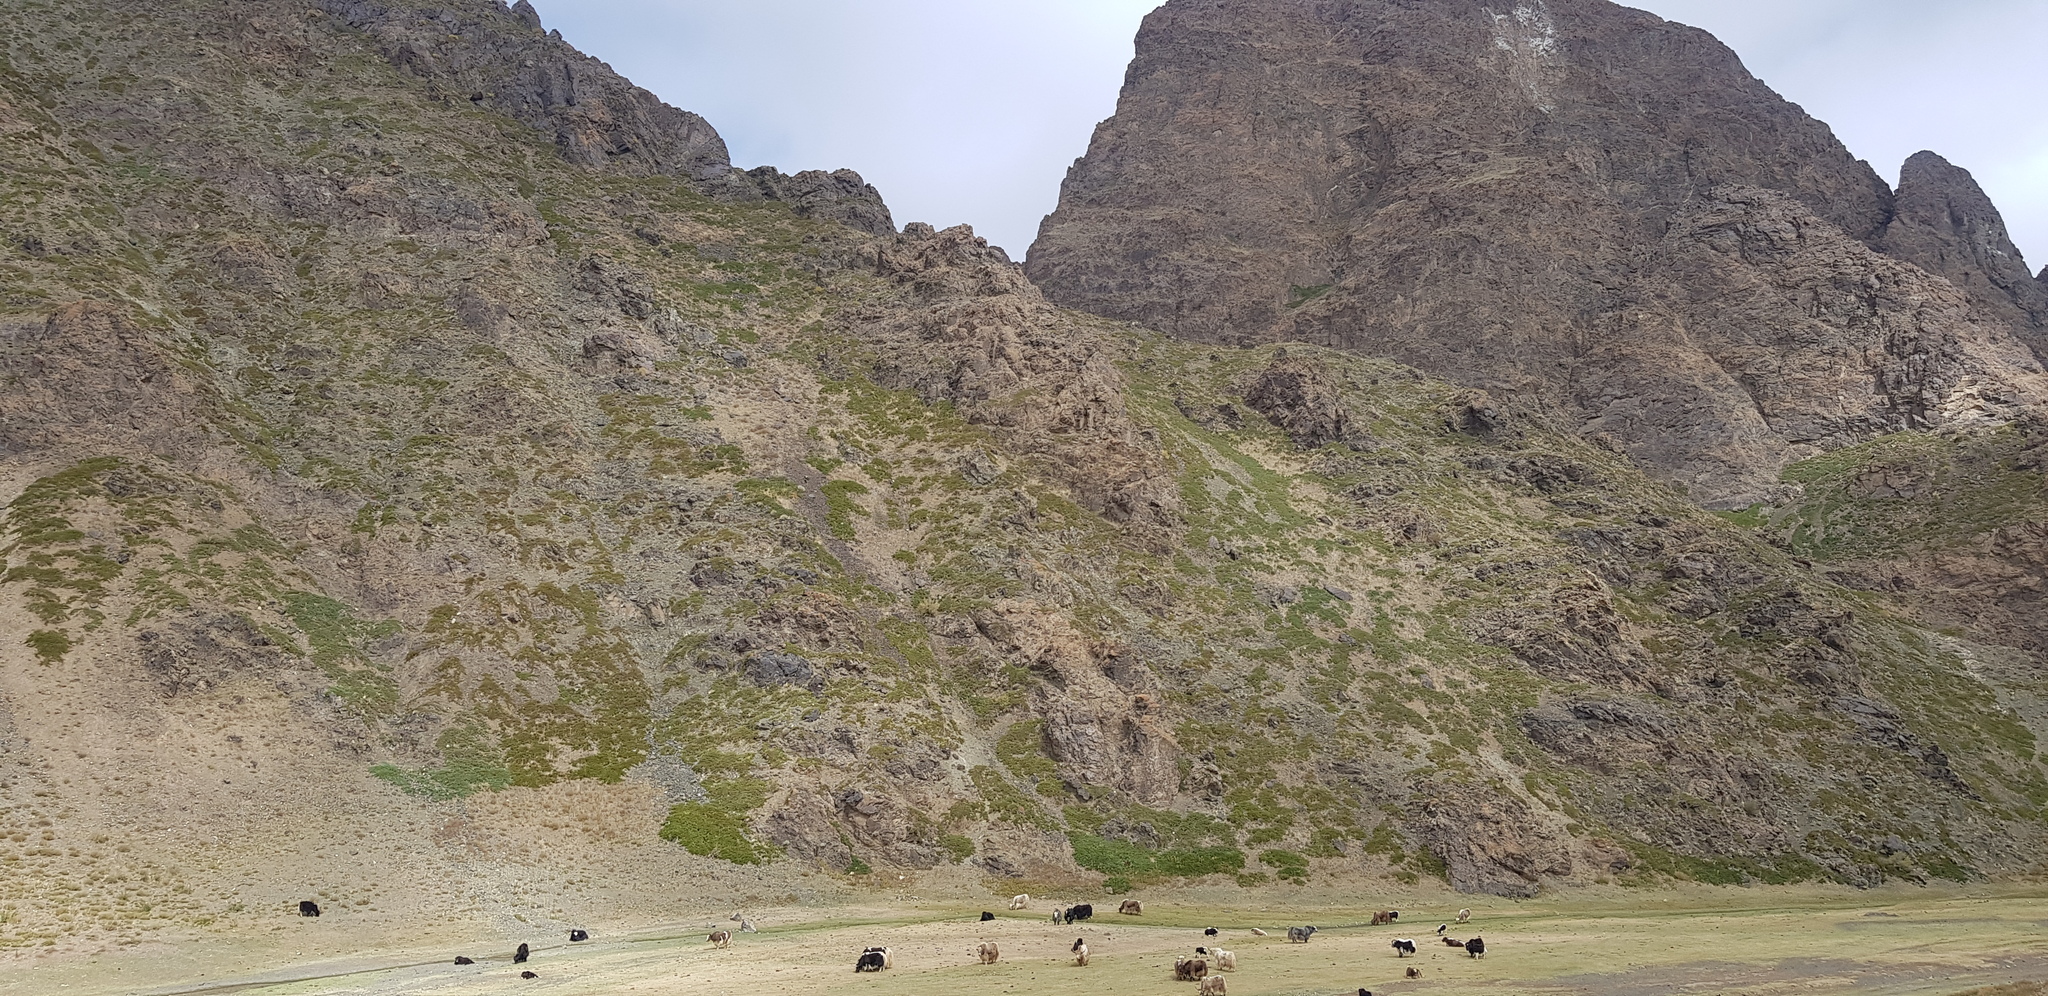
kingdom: Plantae
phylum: Tracheophyta
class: Pinopsida
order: Pinales
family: Cupressaceae
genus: Juniperus
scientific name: Juniperus sabina
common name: Savin
